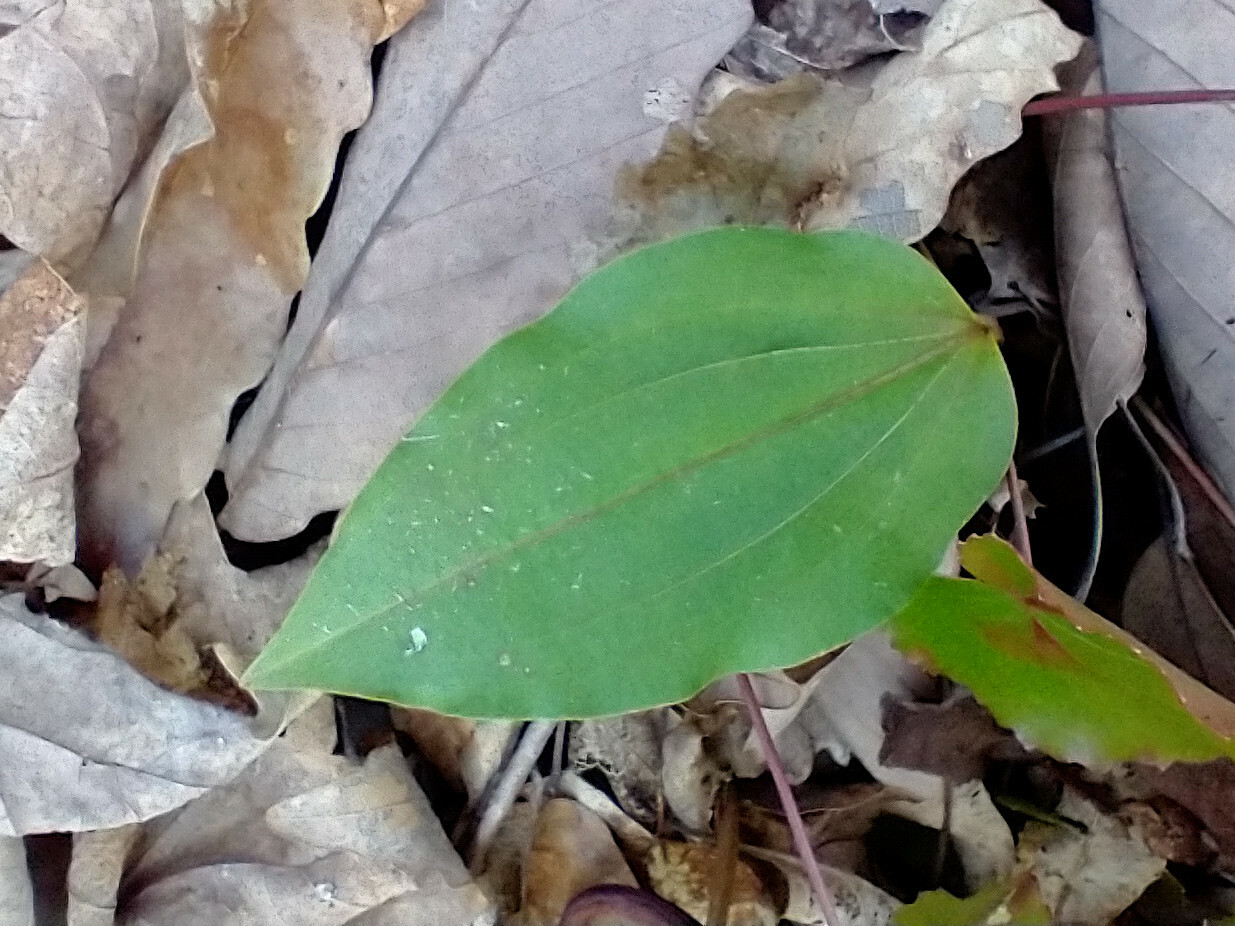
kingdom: Plantae
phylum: Tracheophyta
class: Liliopsida
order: Asparagales
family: Orchidaceae
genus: Tipularia
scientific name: Tipularia discolor
